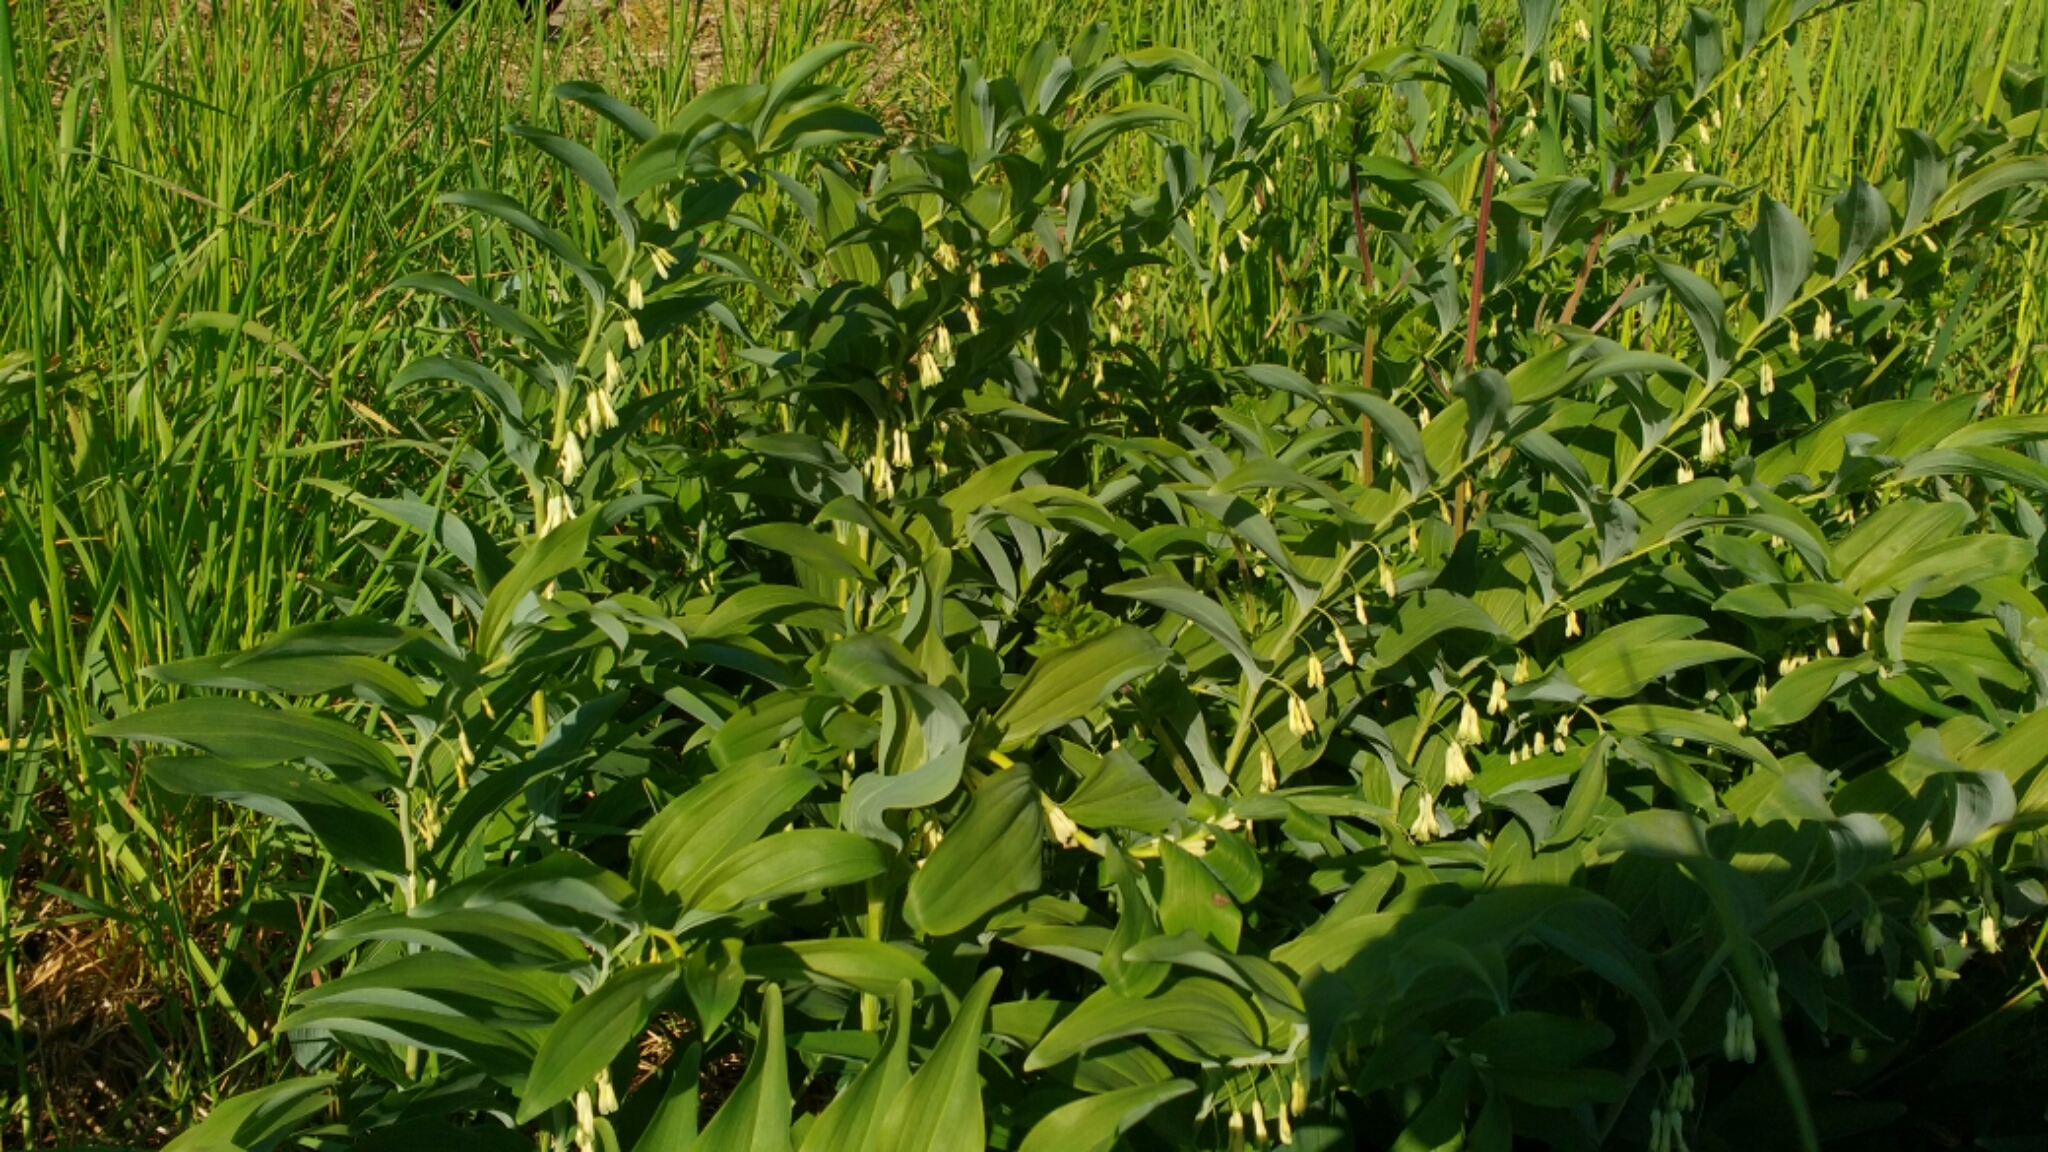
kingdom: Plantae
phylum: Tracheophyta
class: Liliopsida
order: Asparagales
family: Asparagaceae
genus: Polygonatum
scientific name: Polygonatum multiflorum
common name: Solomon's-seal
